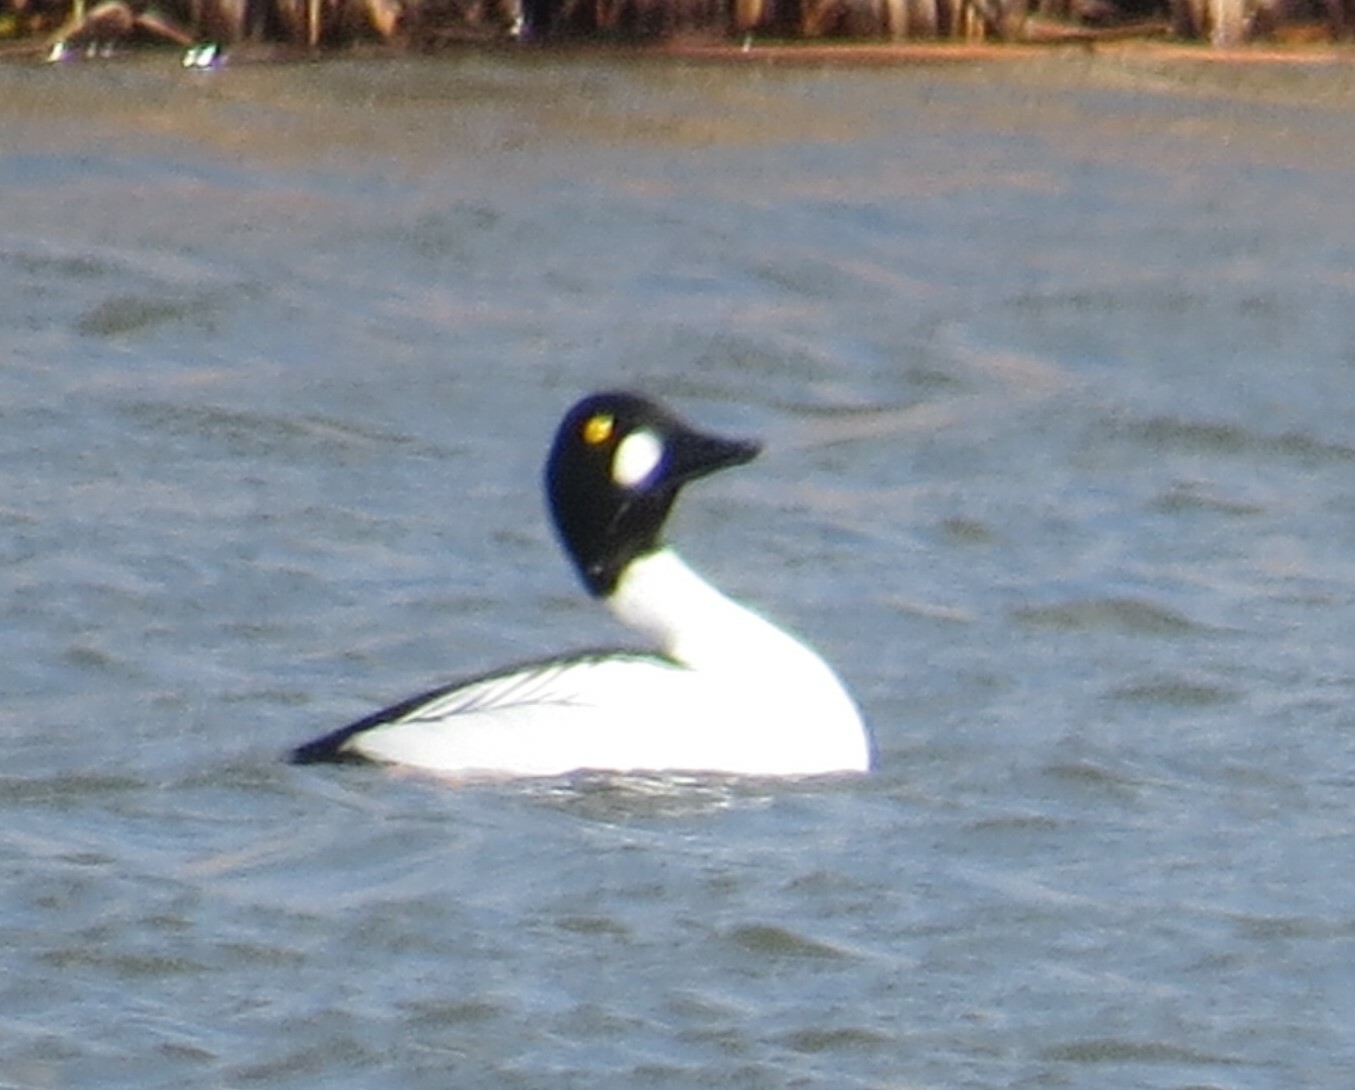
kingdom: Animalia
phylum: Chordata
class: Aves
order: Anseriformes
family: Anatidae
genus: Bucephala
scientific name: Bucephala clangula
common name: Common goldeneye
